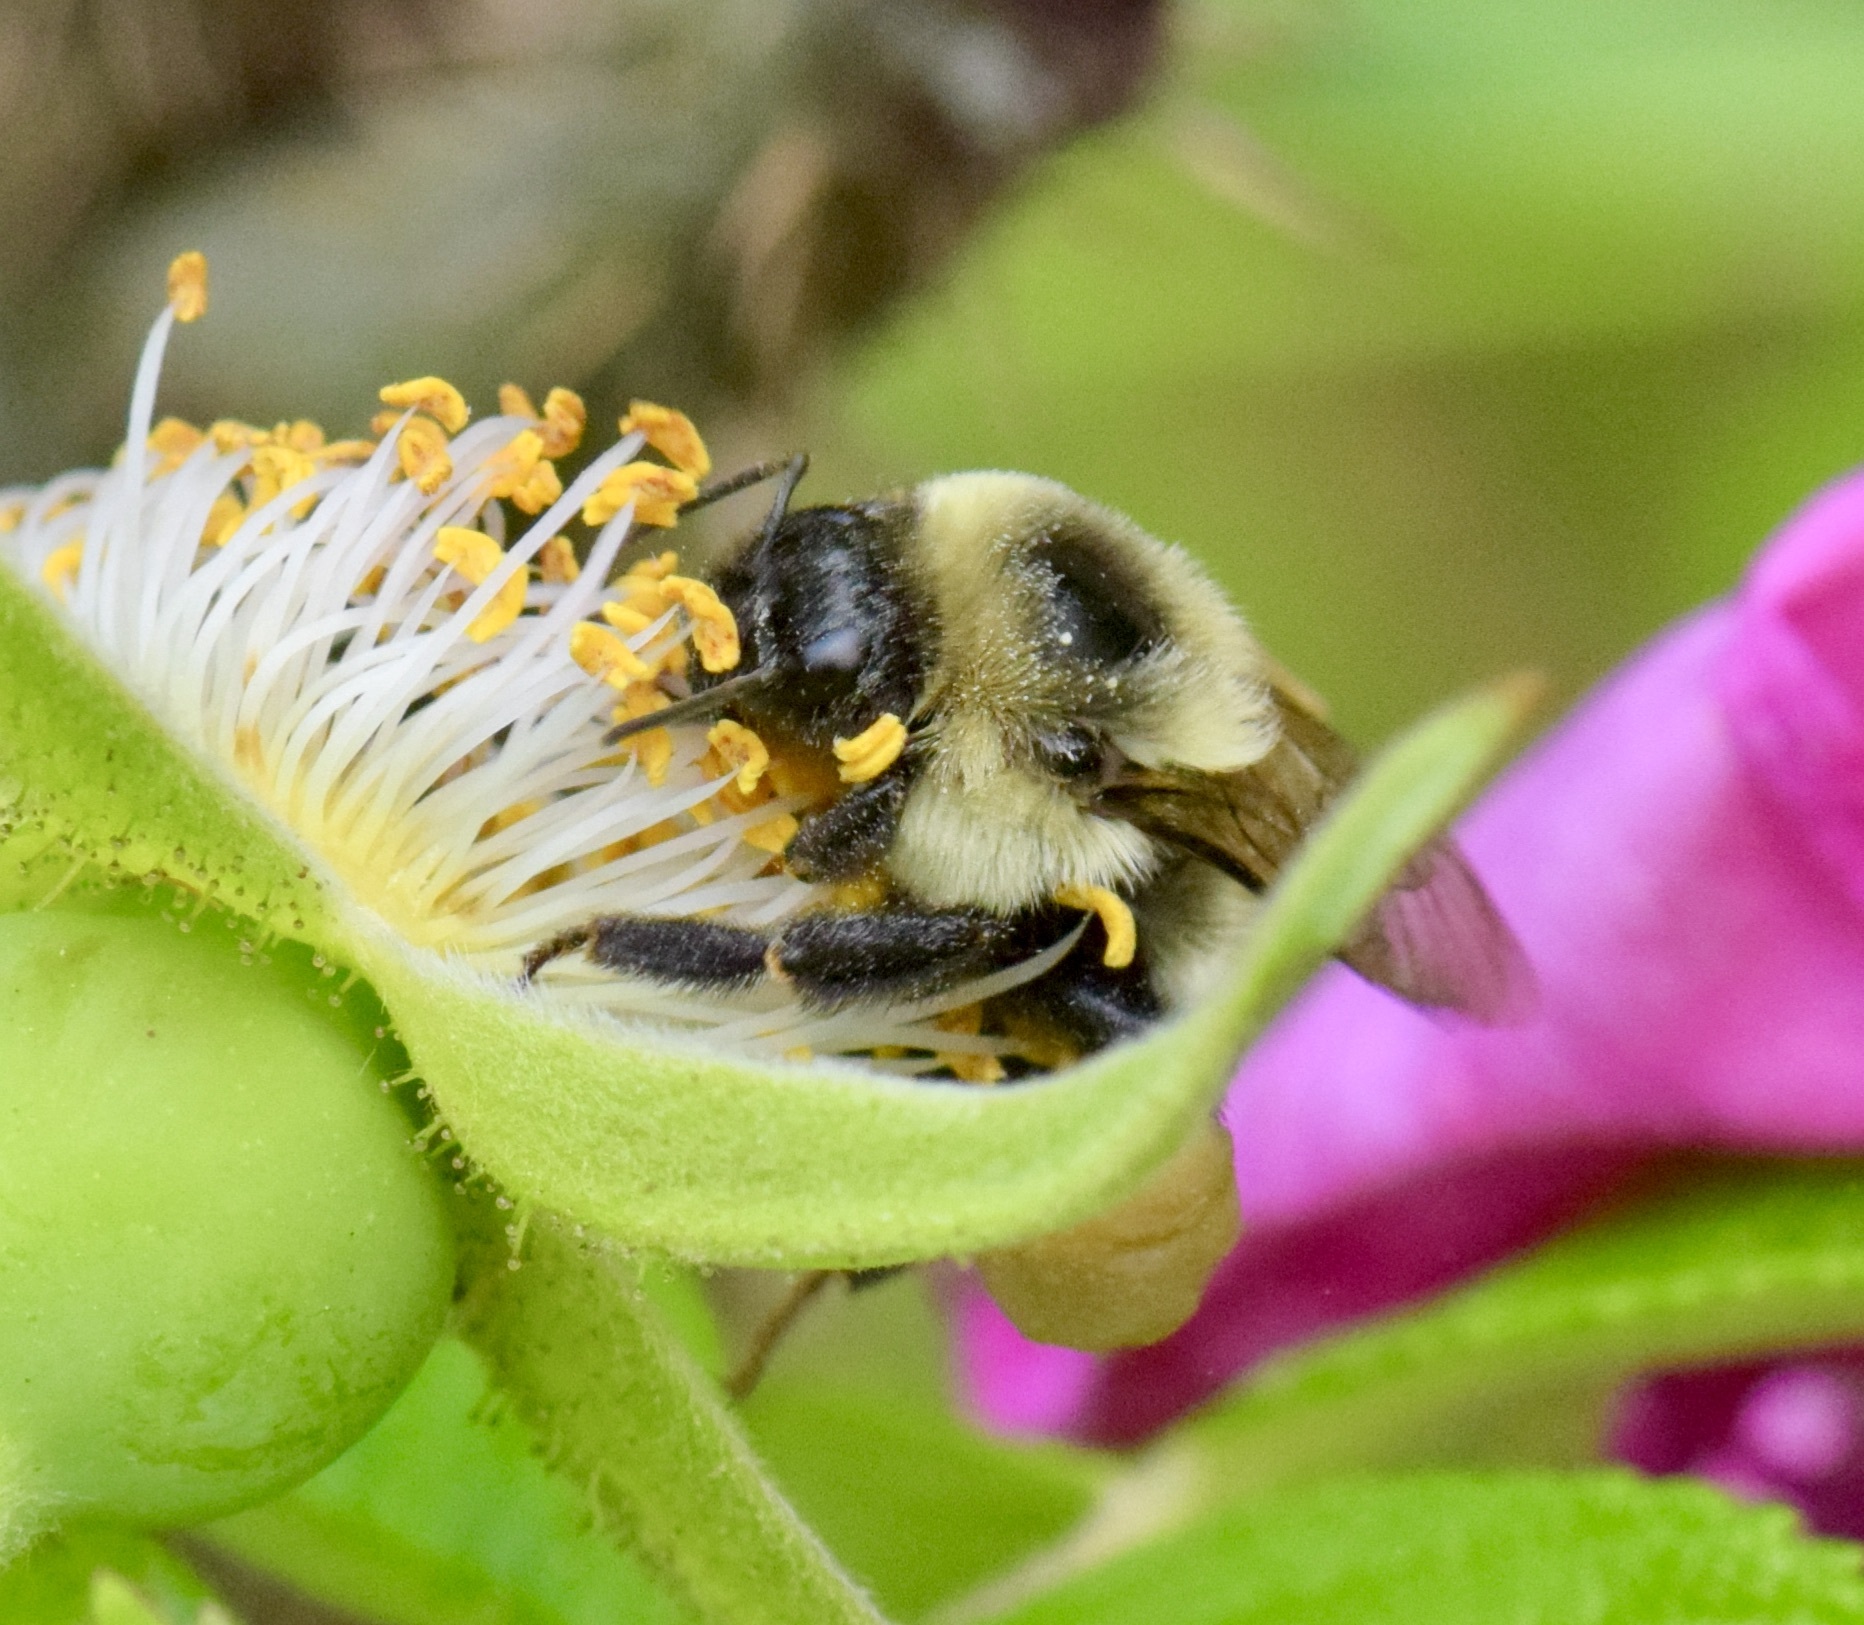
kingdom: Animalia
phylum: Arthropoda
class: Insecta
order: Hymenoptera
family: Apidae
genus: Bombus
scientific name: Bombus griseocollis
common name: Brown-belted bumble bee
